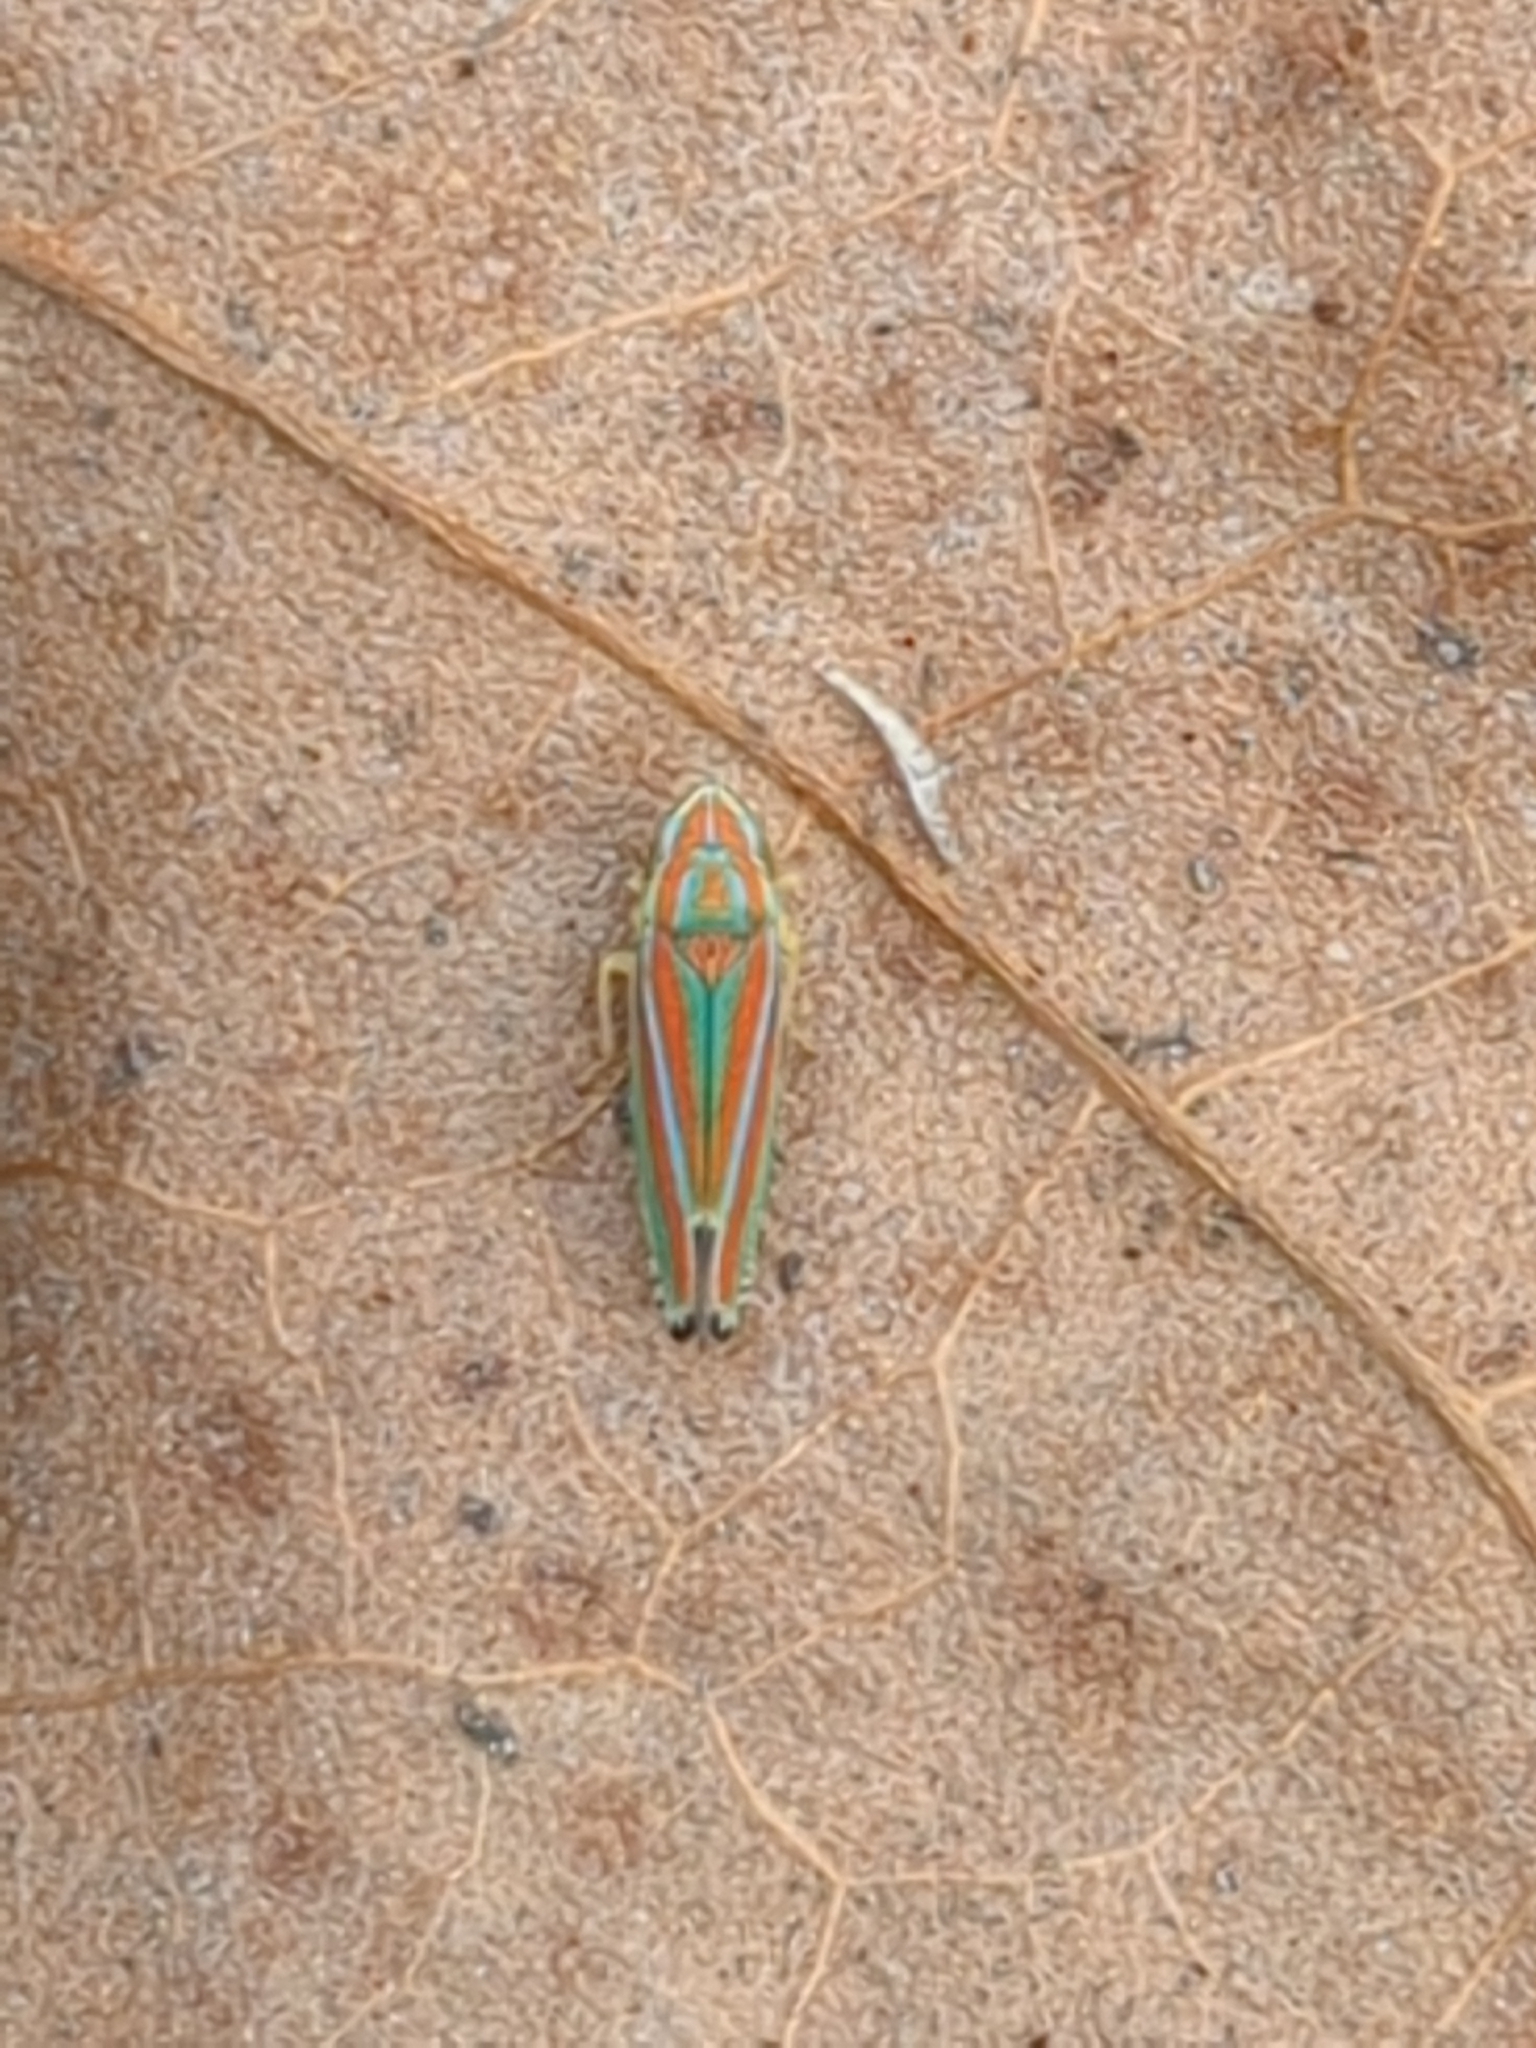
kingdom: Animalia
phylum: Arthropoda
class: Insecta
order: Hemiptera
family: Cicadellidae
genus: Graphocephala
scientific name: Graphocephala coccinea
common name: Candy-striped leafhopper
